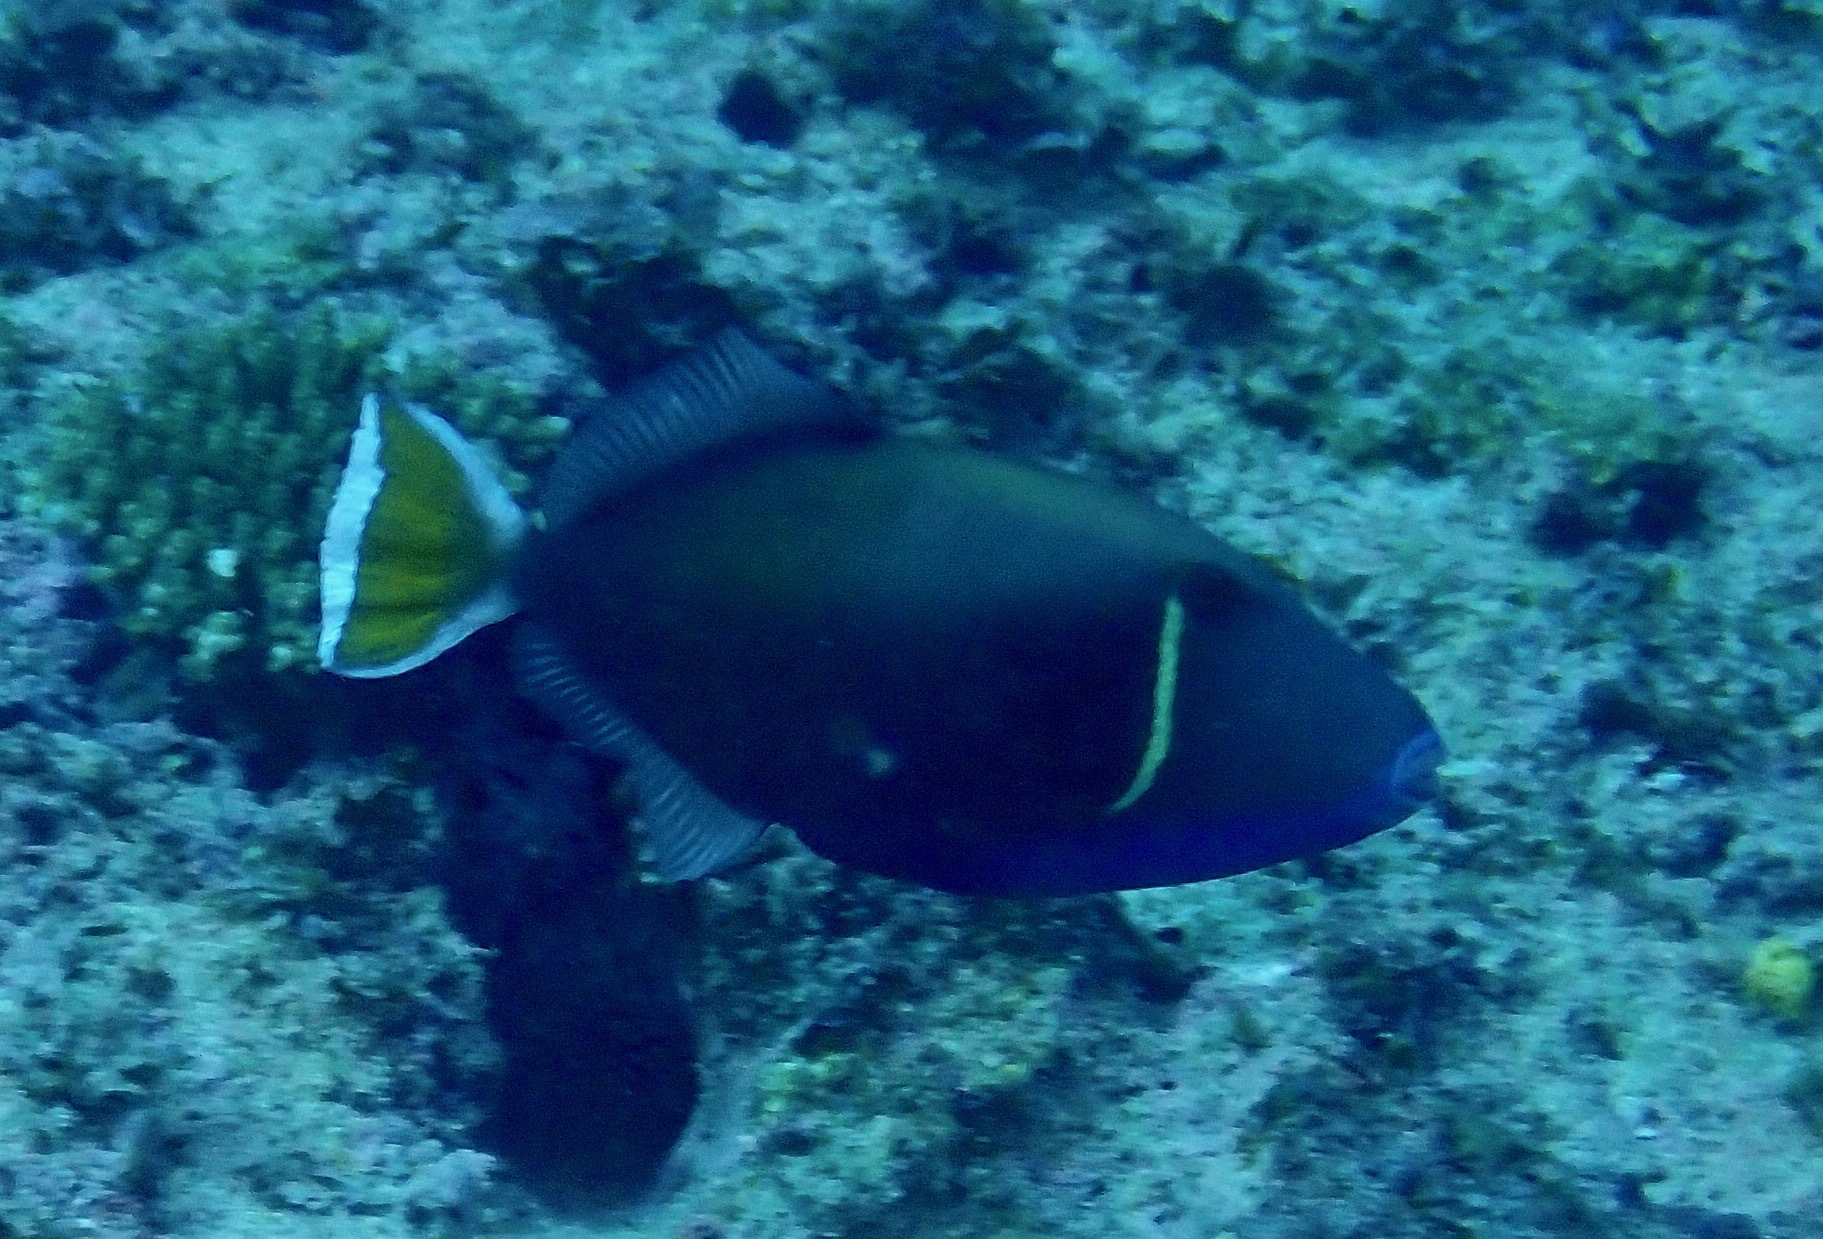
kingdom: Animalia
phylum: Chordata
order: Tetraodontiformes
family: Balistidae
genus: Sufflamen
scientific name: Sufflamen chrysopterum
